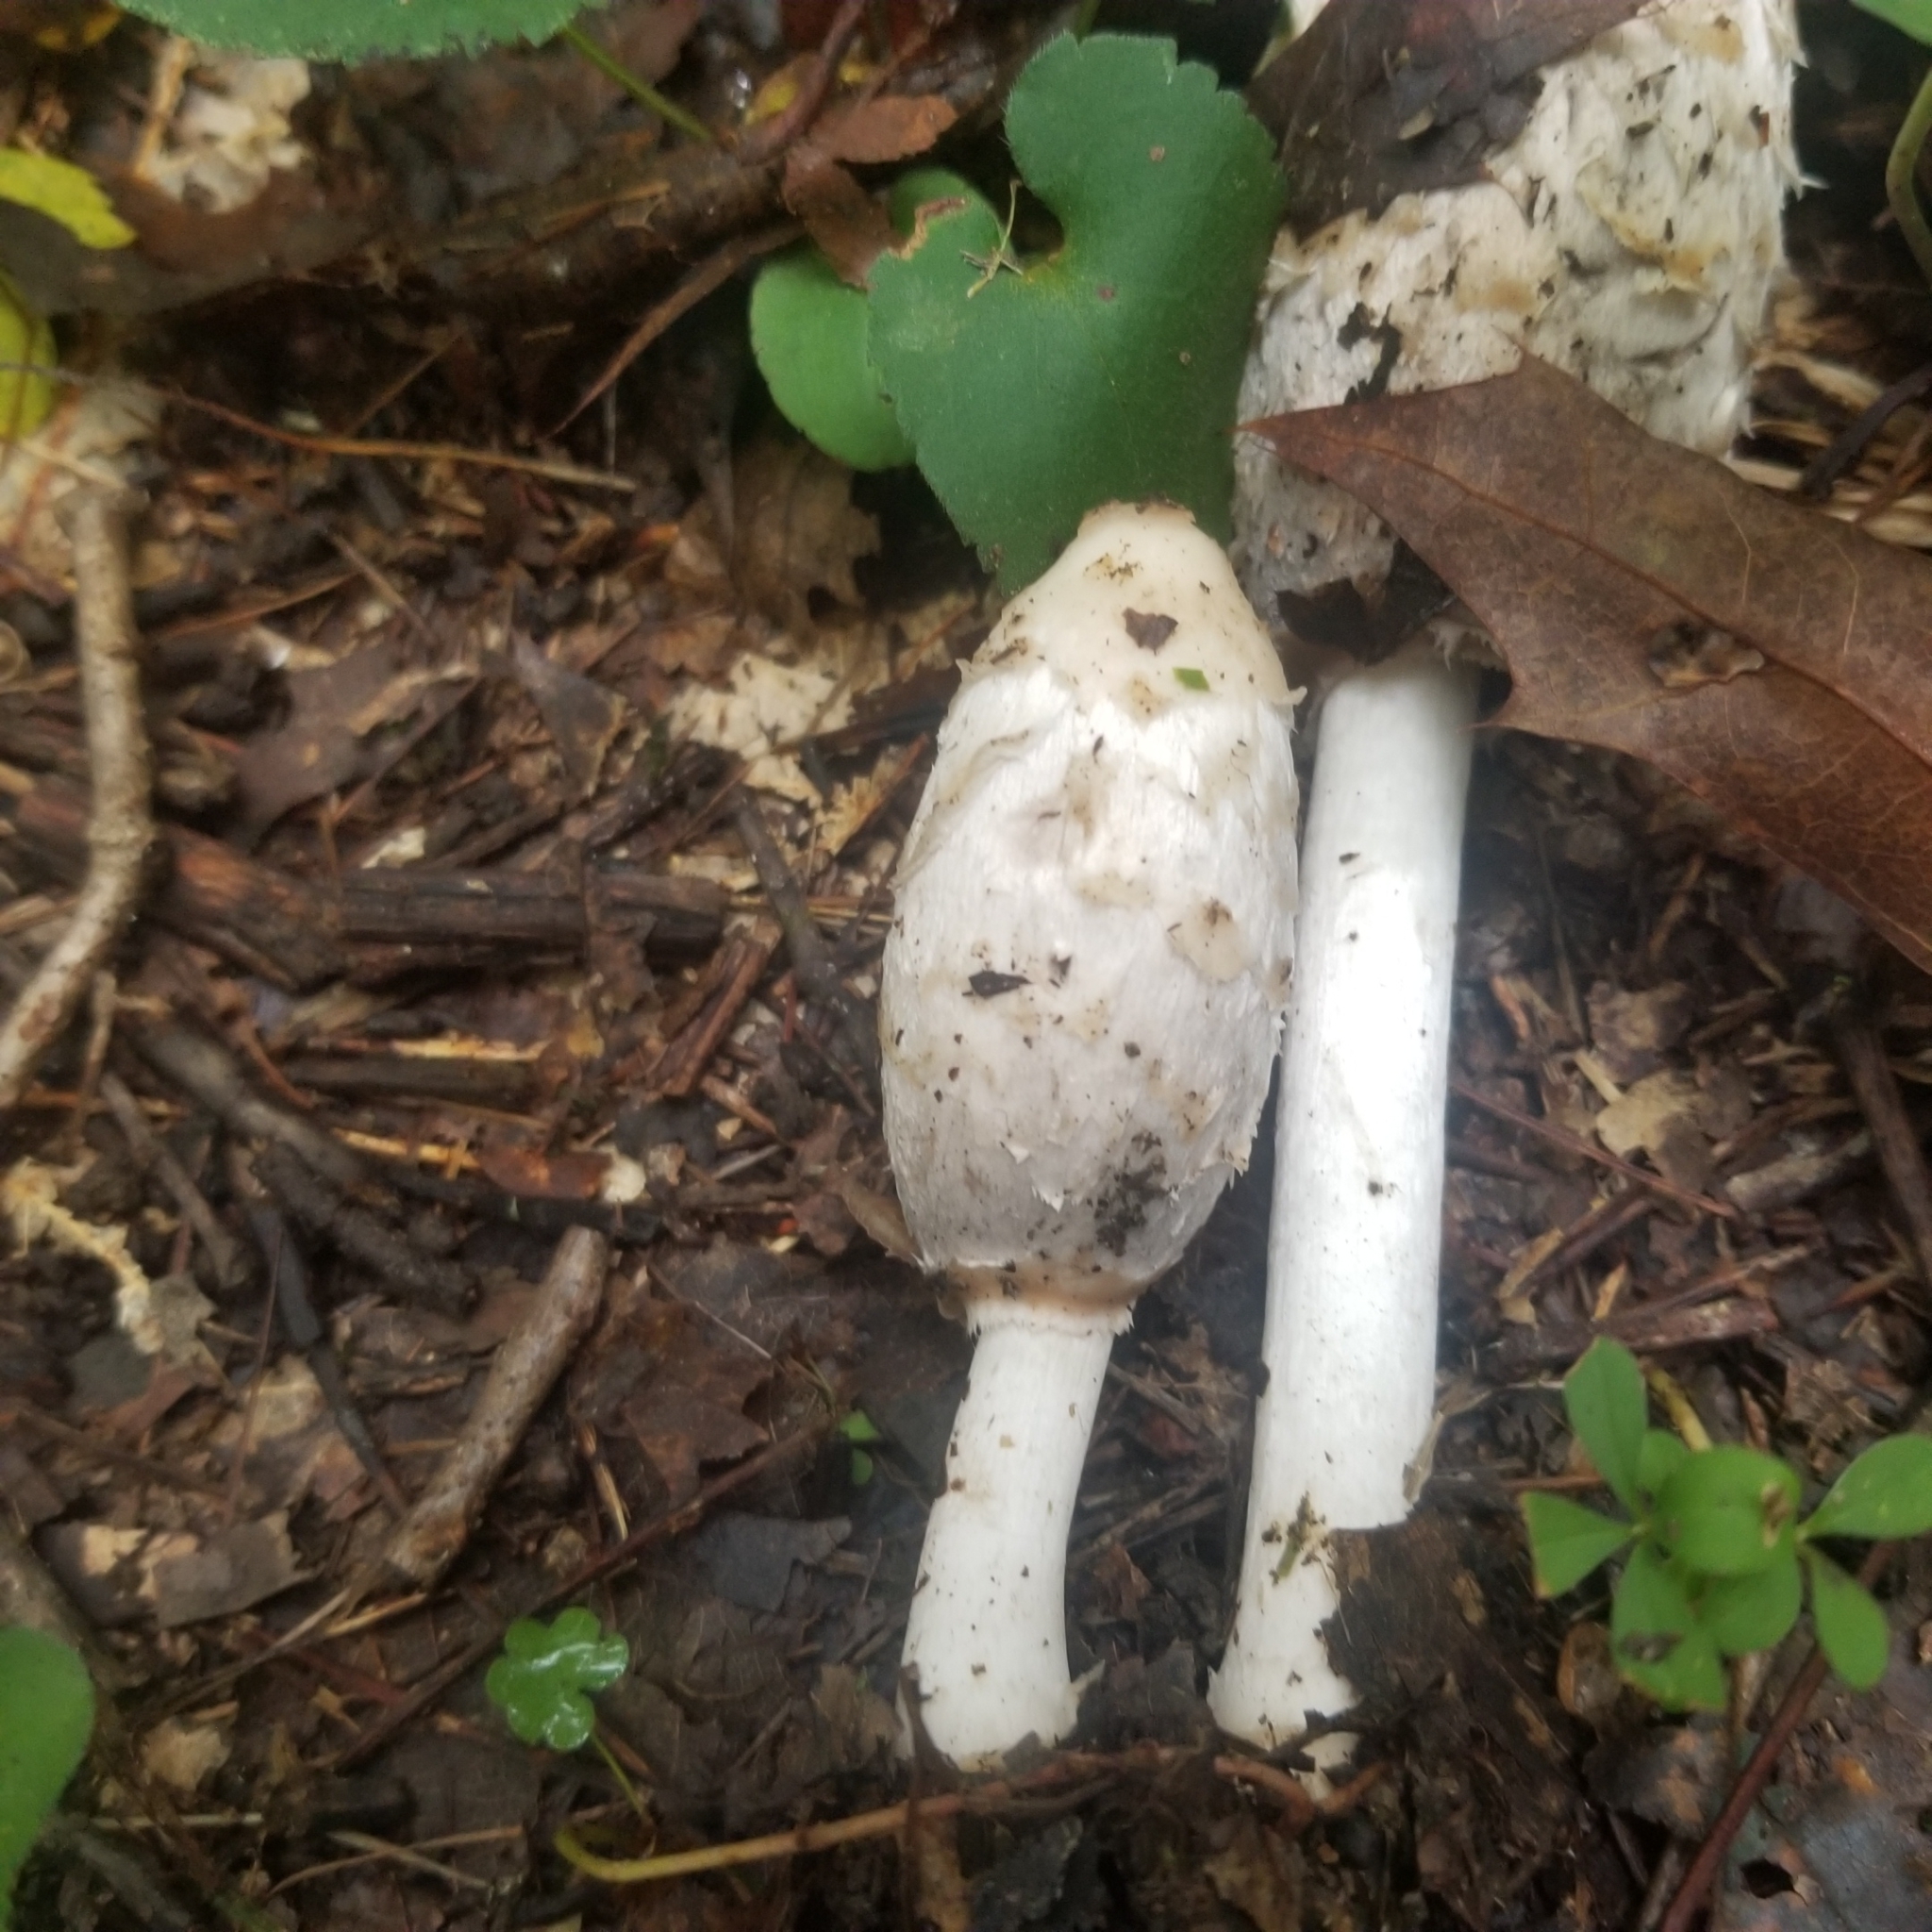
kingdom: Fungi
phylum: Basidiomycota
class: Agaricomycetes
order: Agaricales
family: Agaricaceae
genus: Coprinus
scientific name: Coprinus comatus
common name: Lawyer's wig
